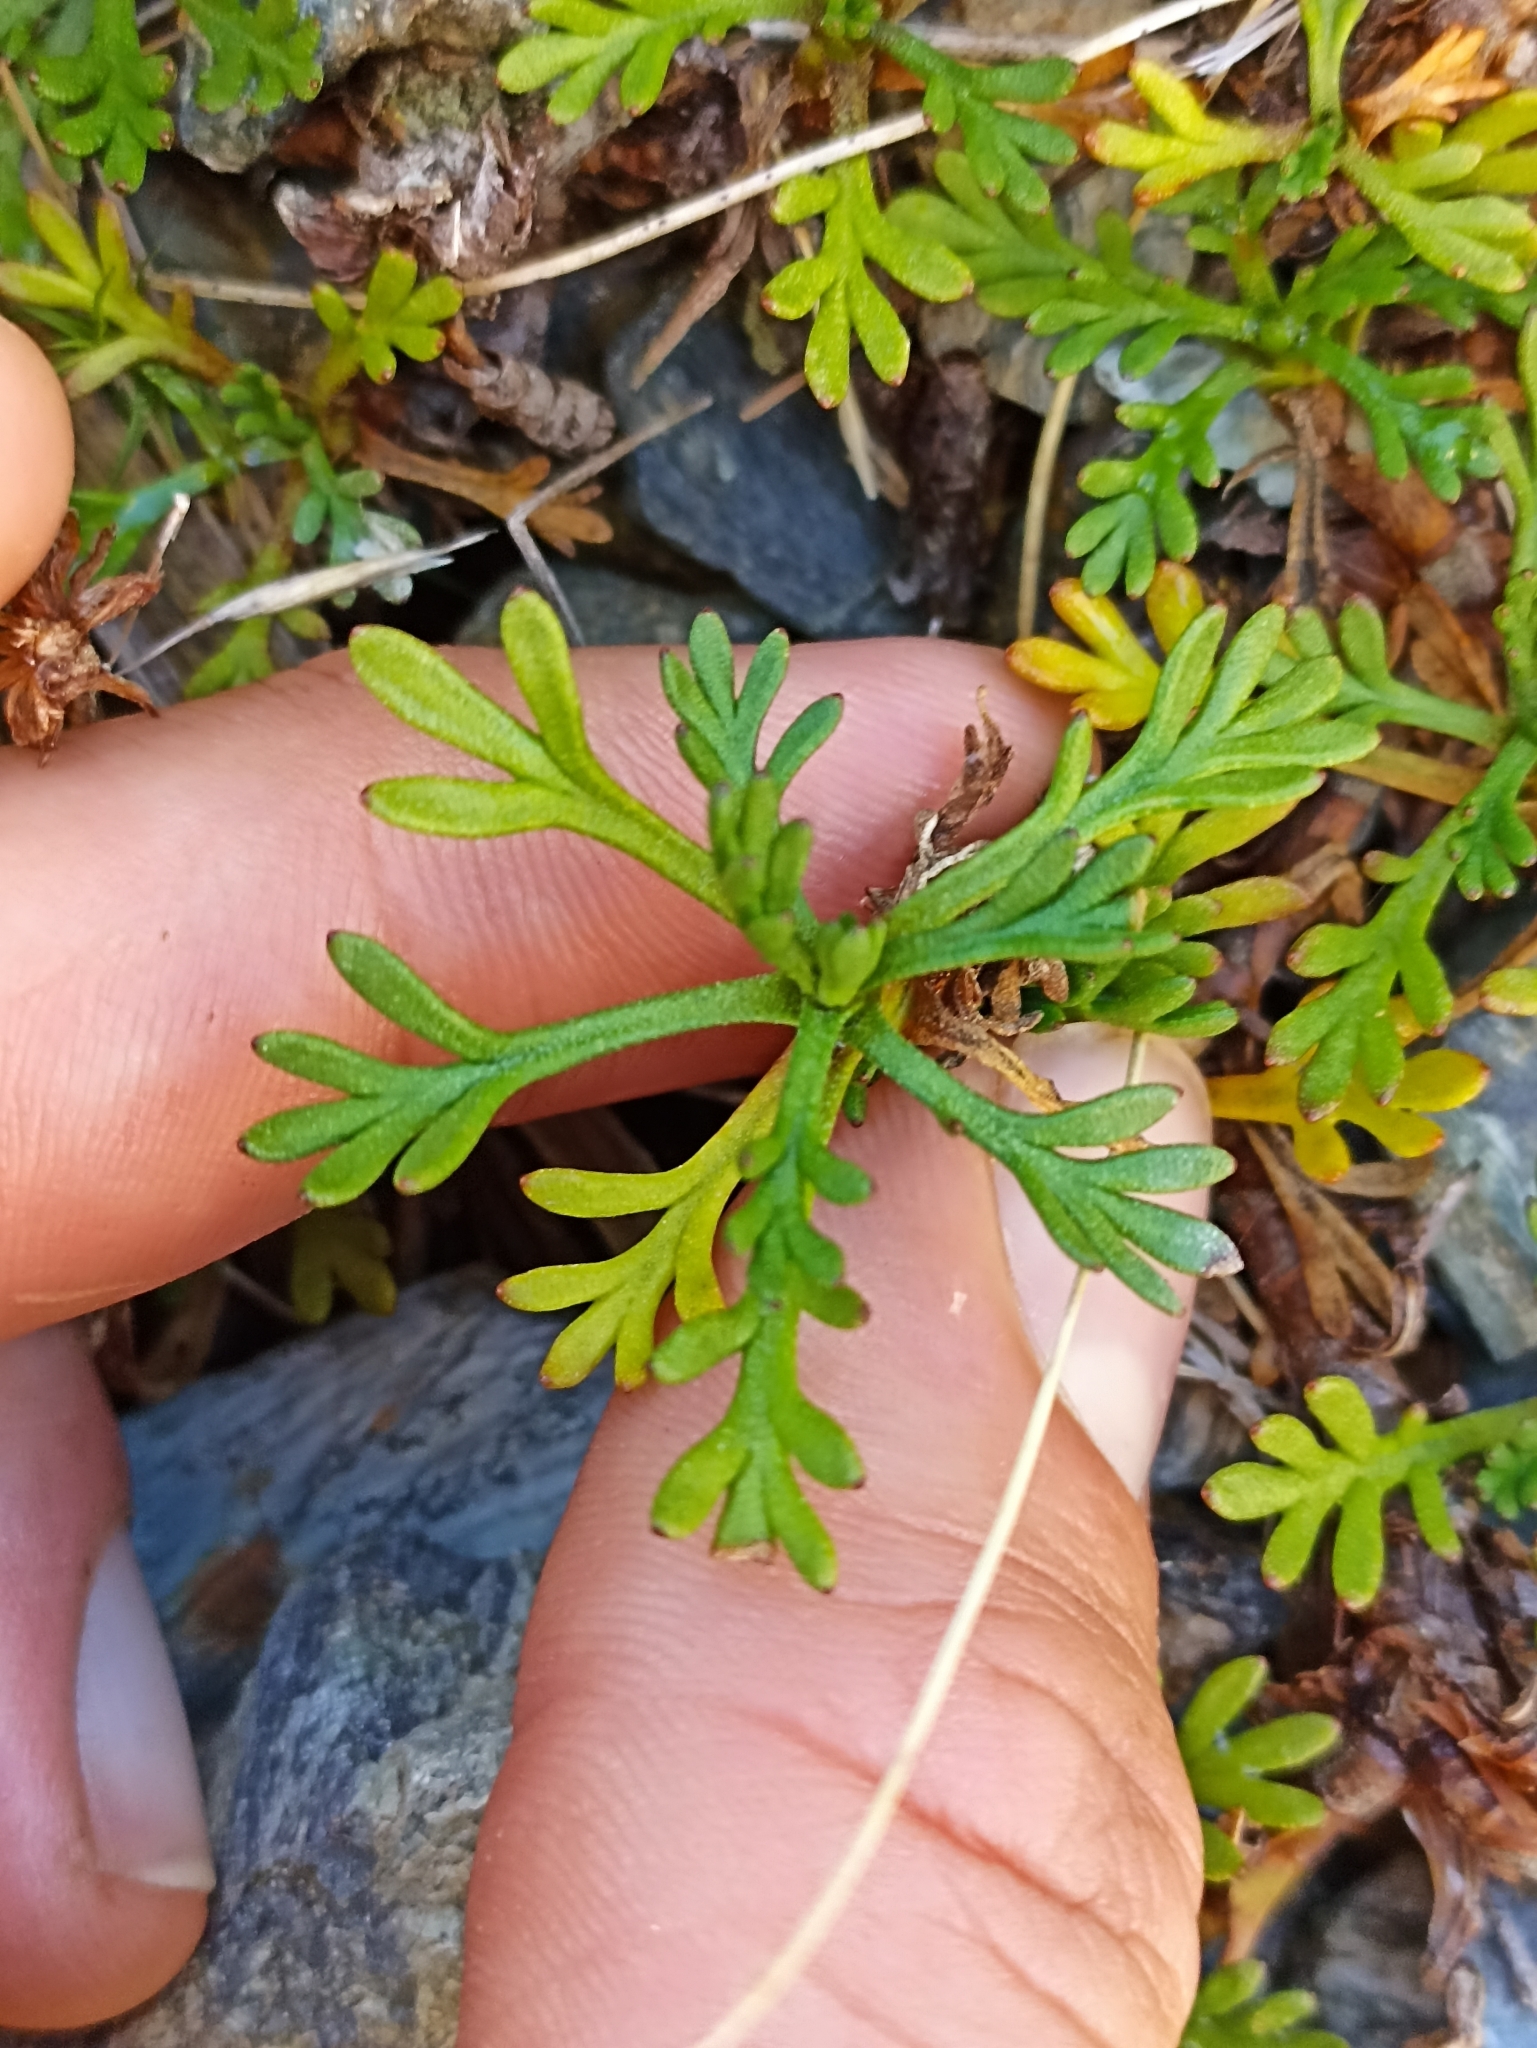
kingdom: Plantae
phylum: Tracheophyta
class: Magnoliopsida
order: Asterales
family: Asteraceae
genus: Leptinella
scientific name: Leptinella pyrethrifolia
